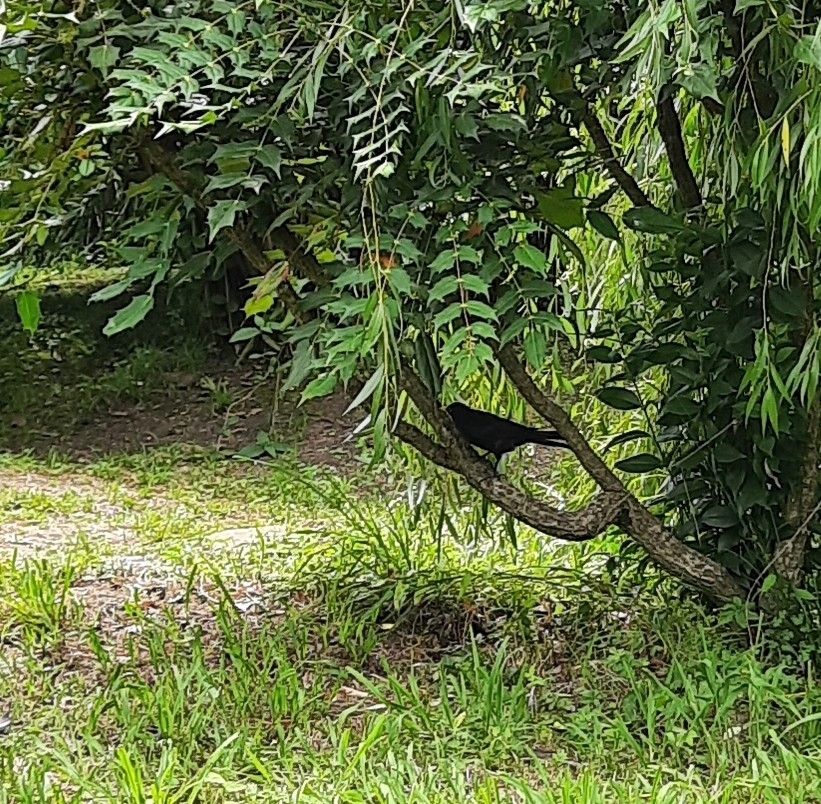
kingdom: Animalia
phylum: Chordata
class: Aves
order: Passeriformes
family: Turdidae
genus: Turdus
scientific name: Turdus merula
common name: Common blackbird
